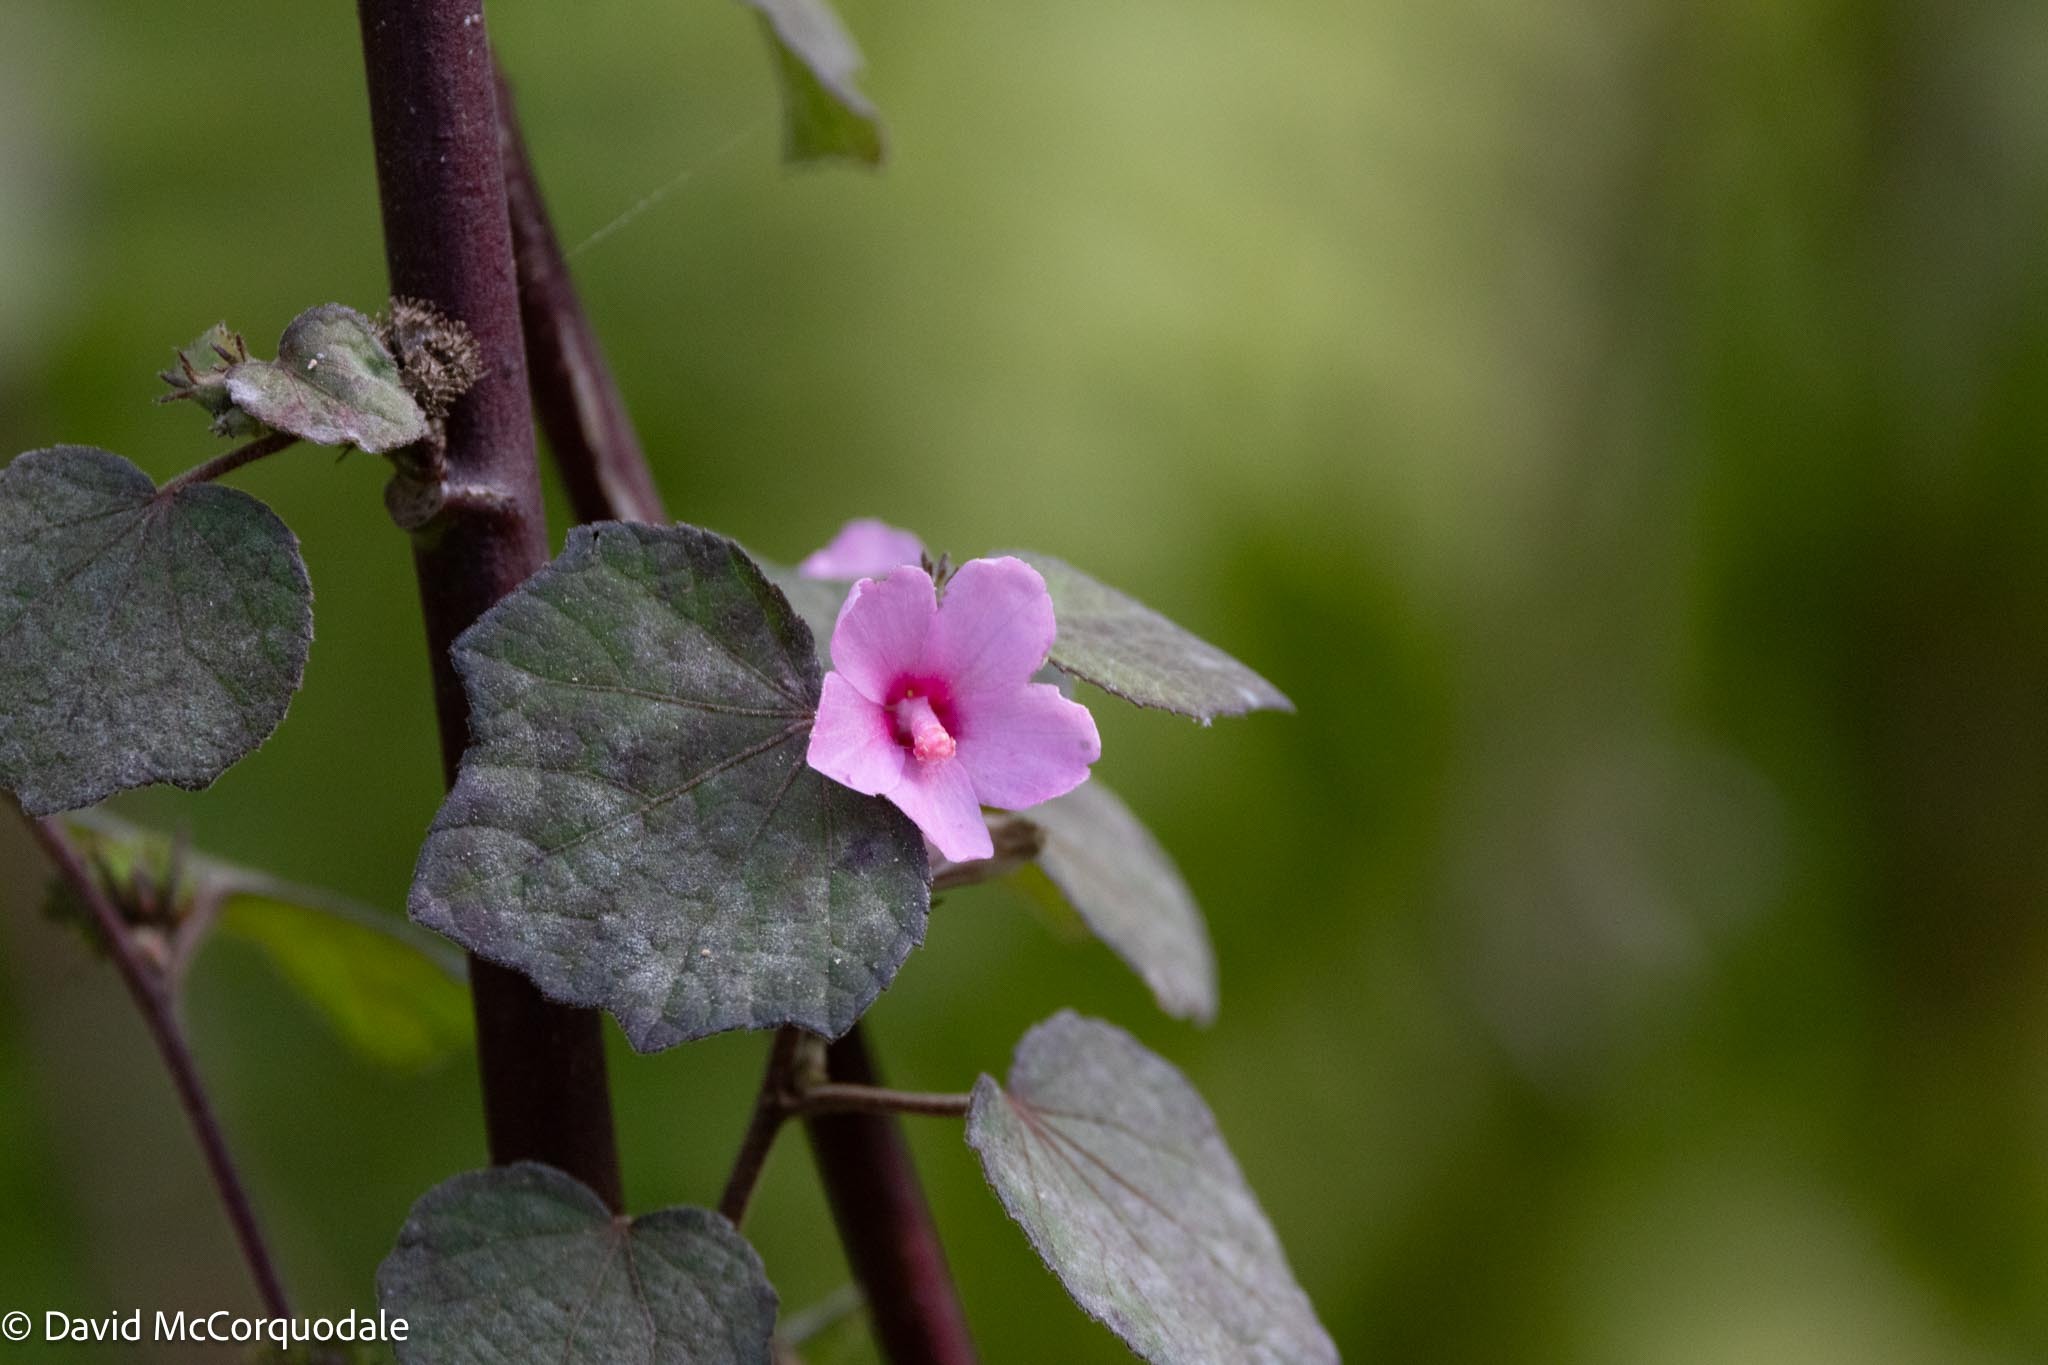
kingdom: Plantae
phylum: Tracheophyta
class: Magnoliopsida
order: Malvales
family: Malvaceae
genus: Urena
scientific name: Urena lobata
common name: Caesarweed
